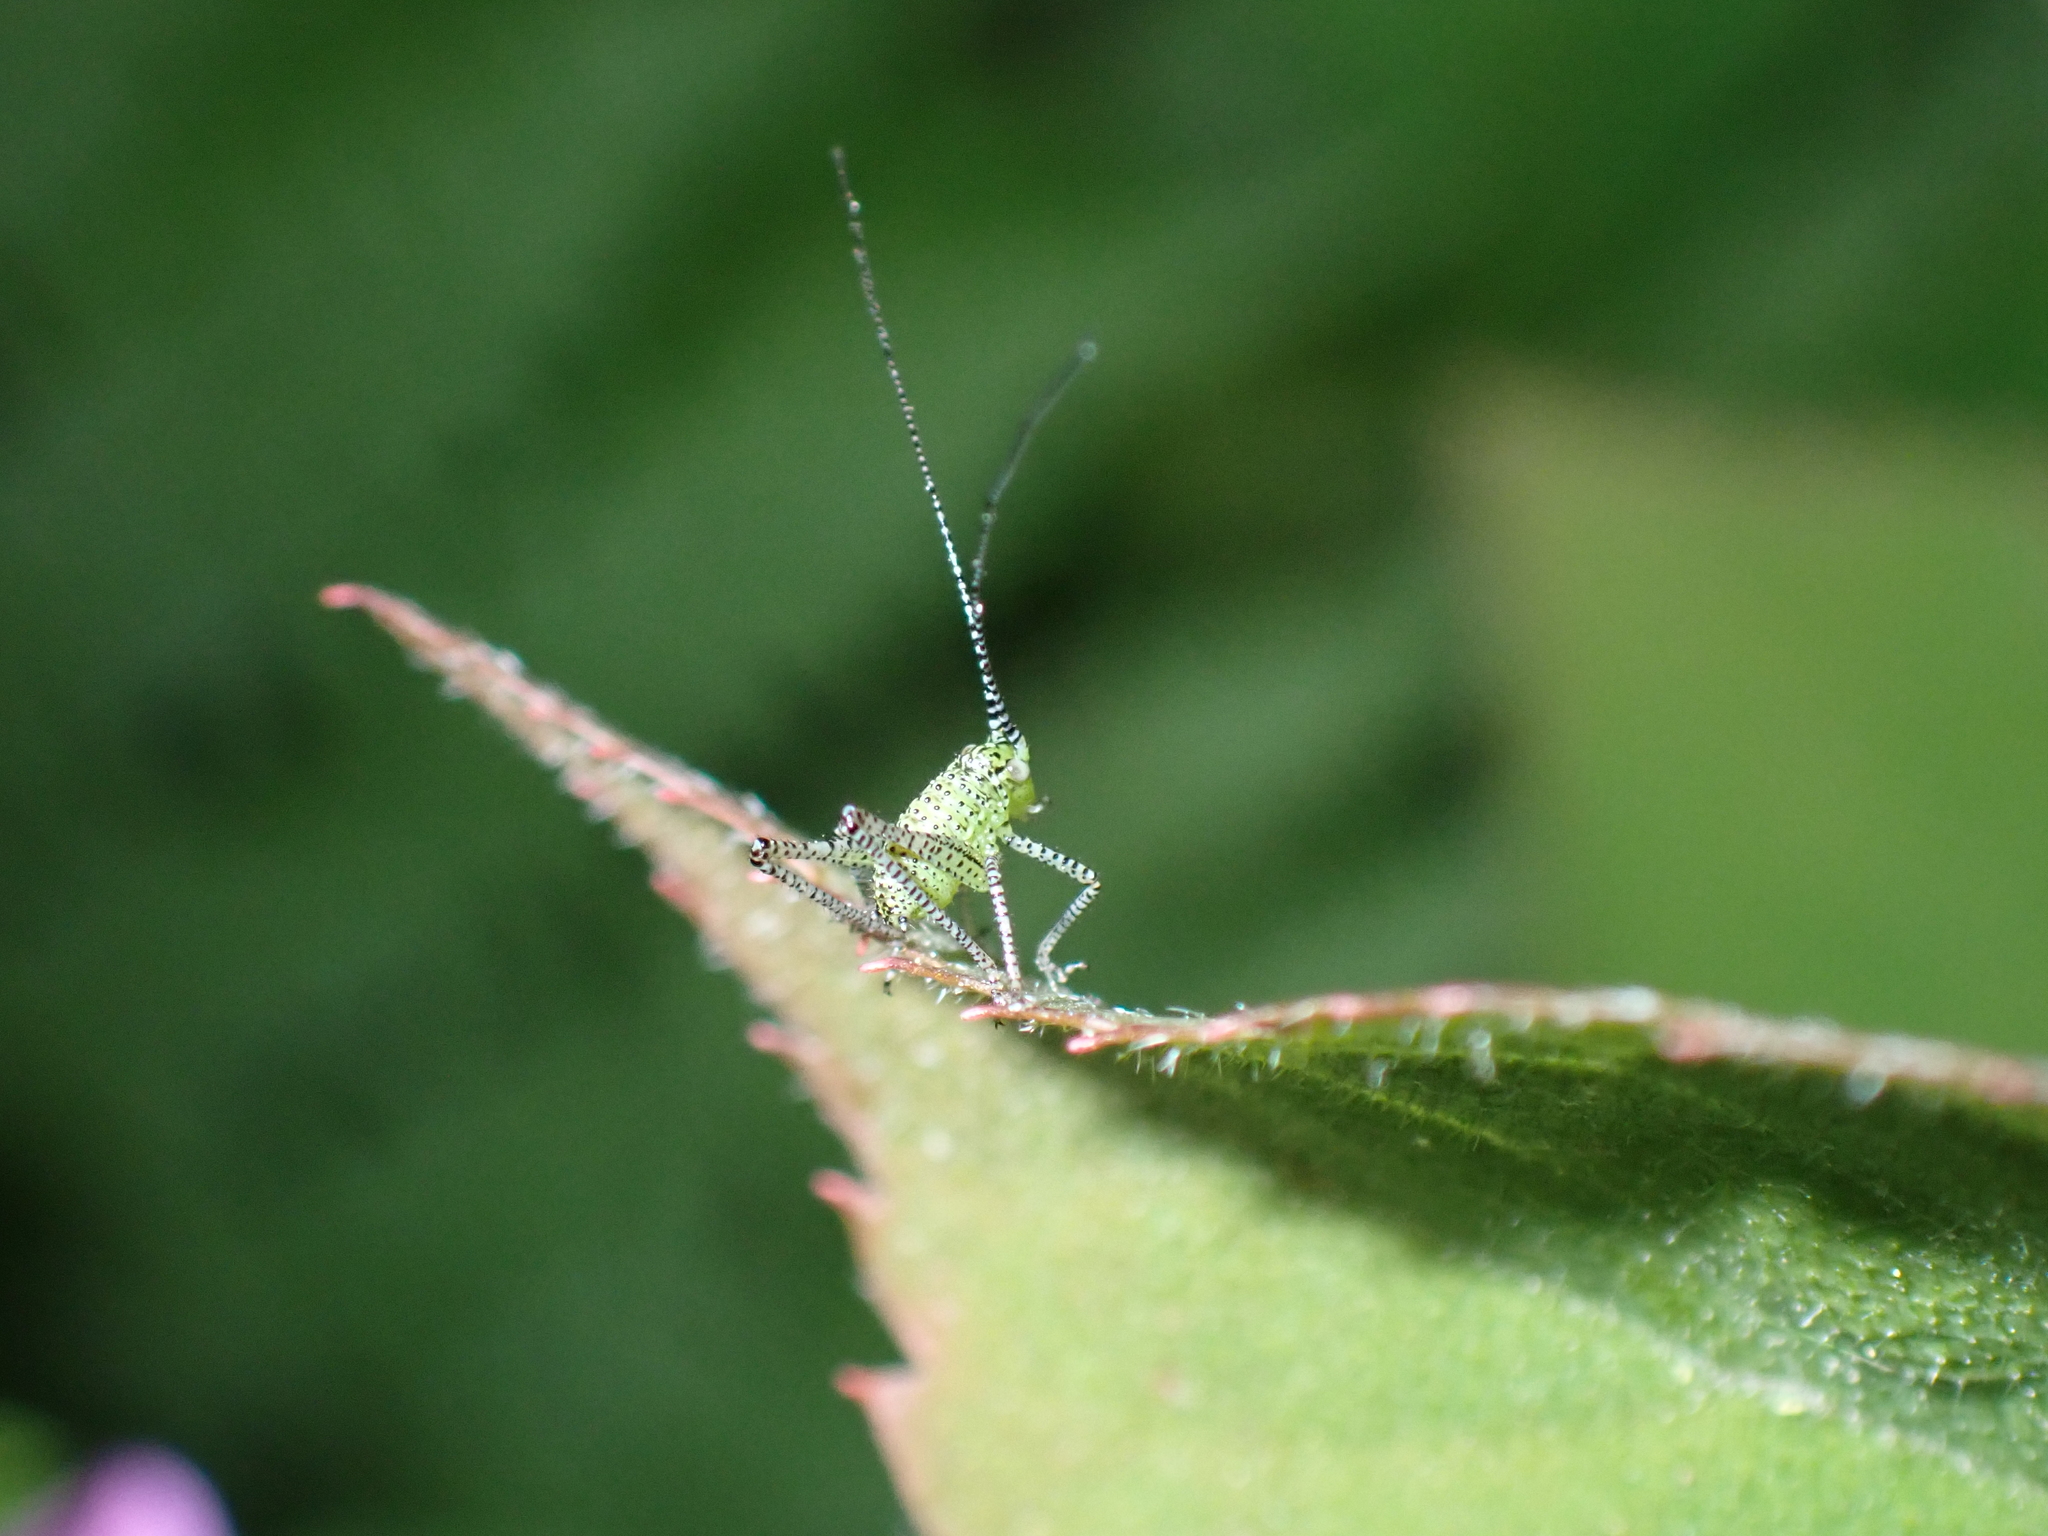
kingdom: Animalia
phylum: Arthropoda
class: Insecta
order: Orthoptera
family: Tettigoniidae
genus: Leptophyes
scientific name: Leptophyes punctatissima
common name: Speckled bush-cricket
